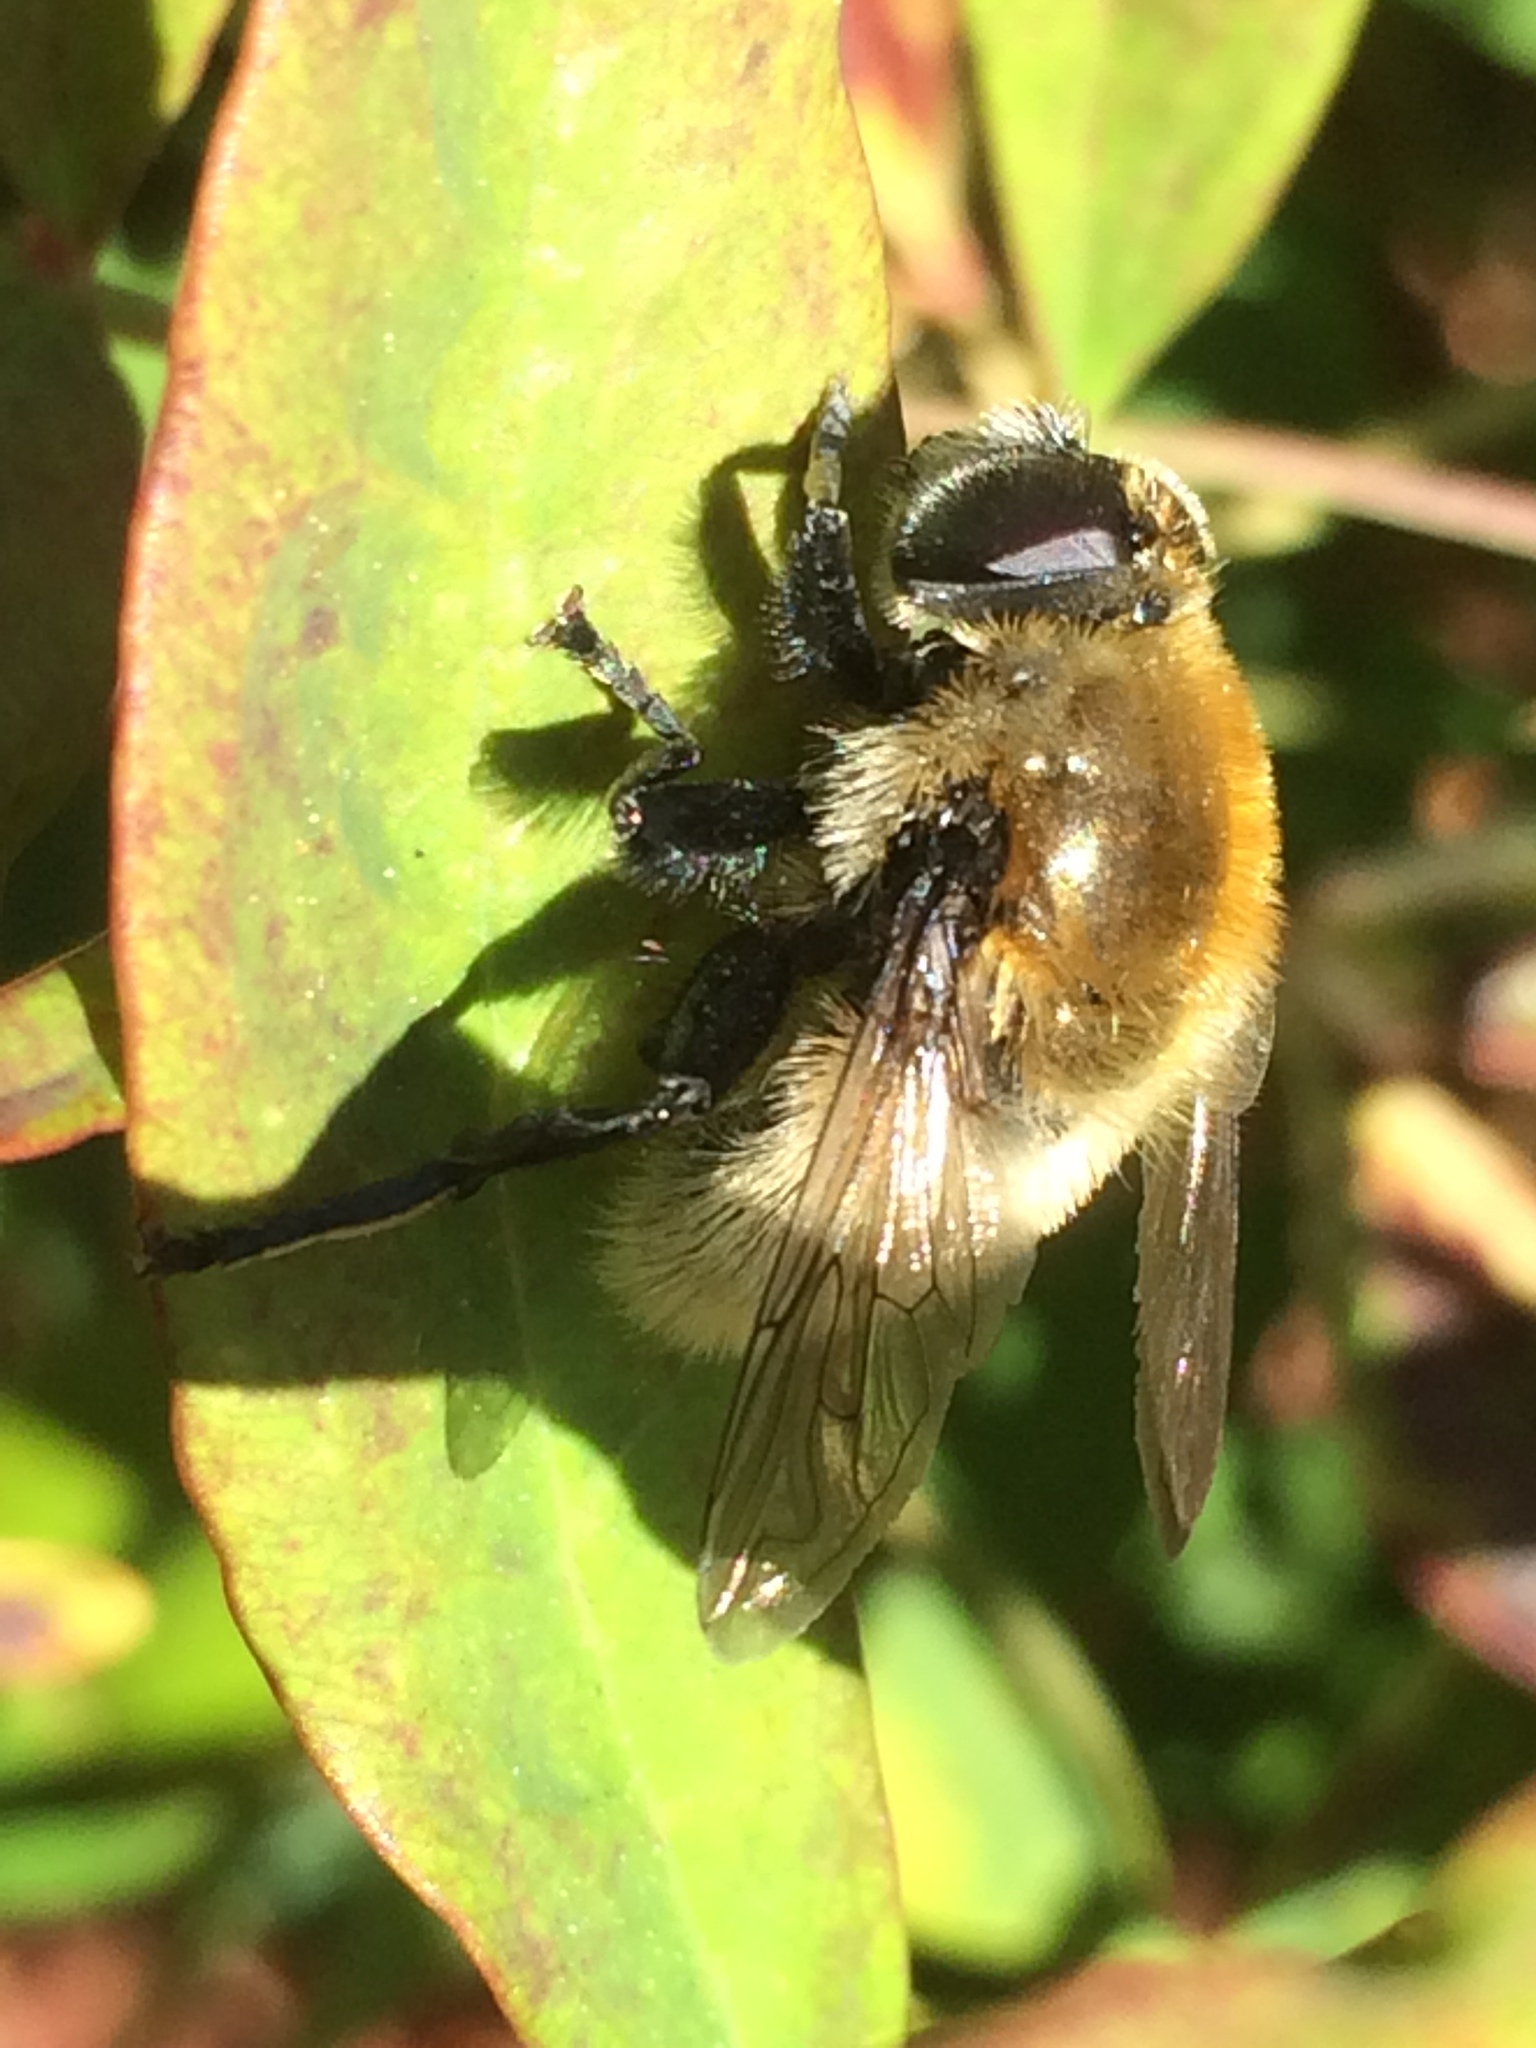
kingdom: Animalia
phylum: Arthropoda
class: Insecta
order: Diptera
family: Syrphidae
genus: Merodon
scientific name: Merodon equestris
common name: Greater bulb-fly
